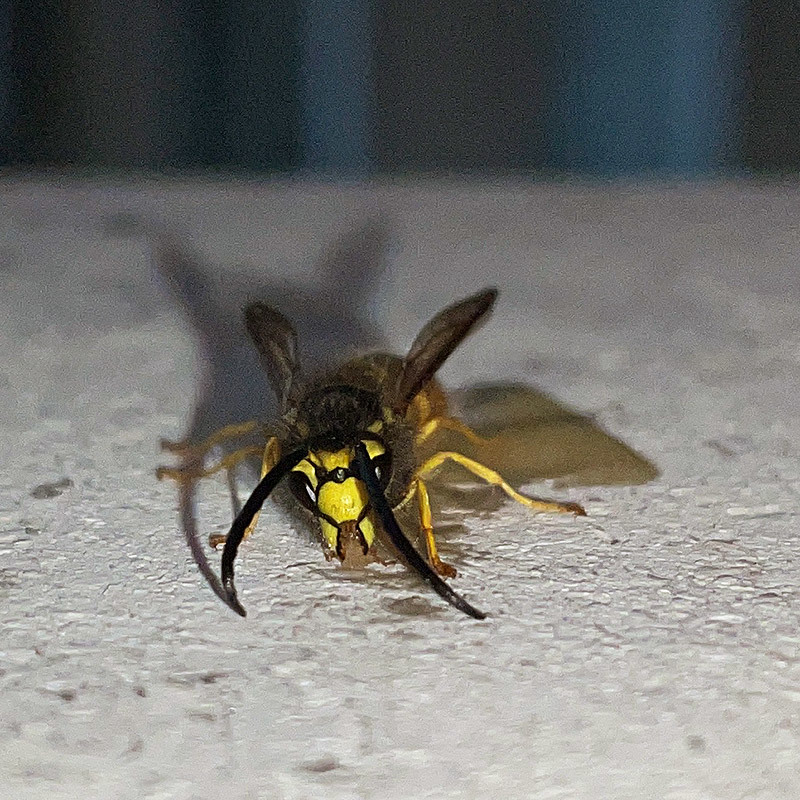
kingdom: Animalia
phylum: Arthropoda
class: Insecta
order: Hymenoptera
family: Vespidae
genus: Vespula
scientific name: Vespula germanica
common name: German wasp
